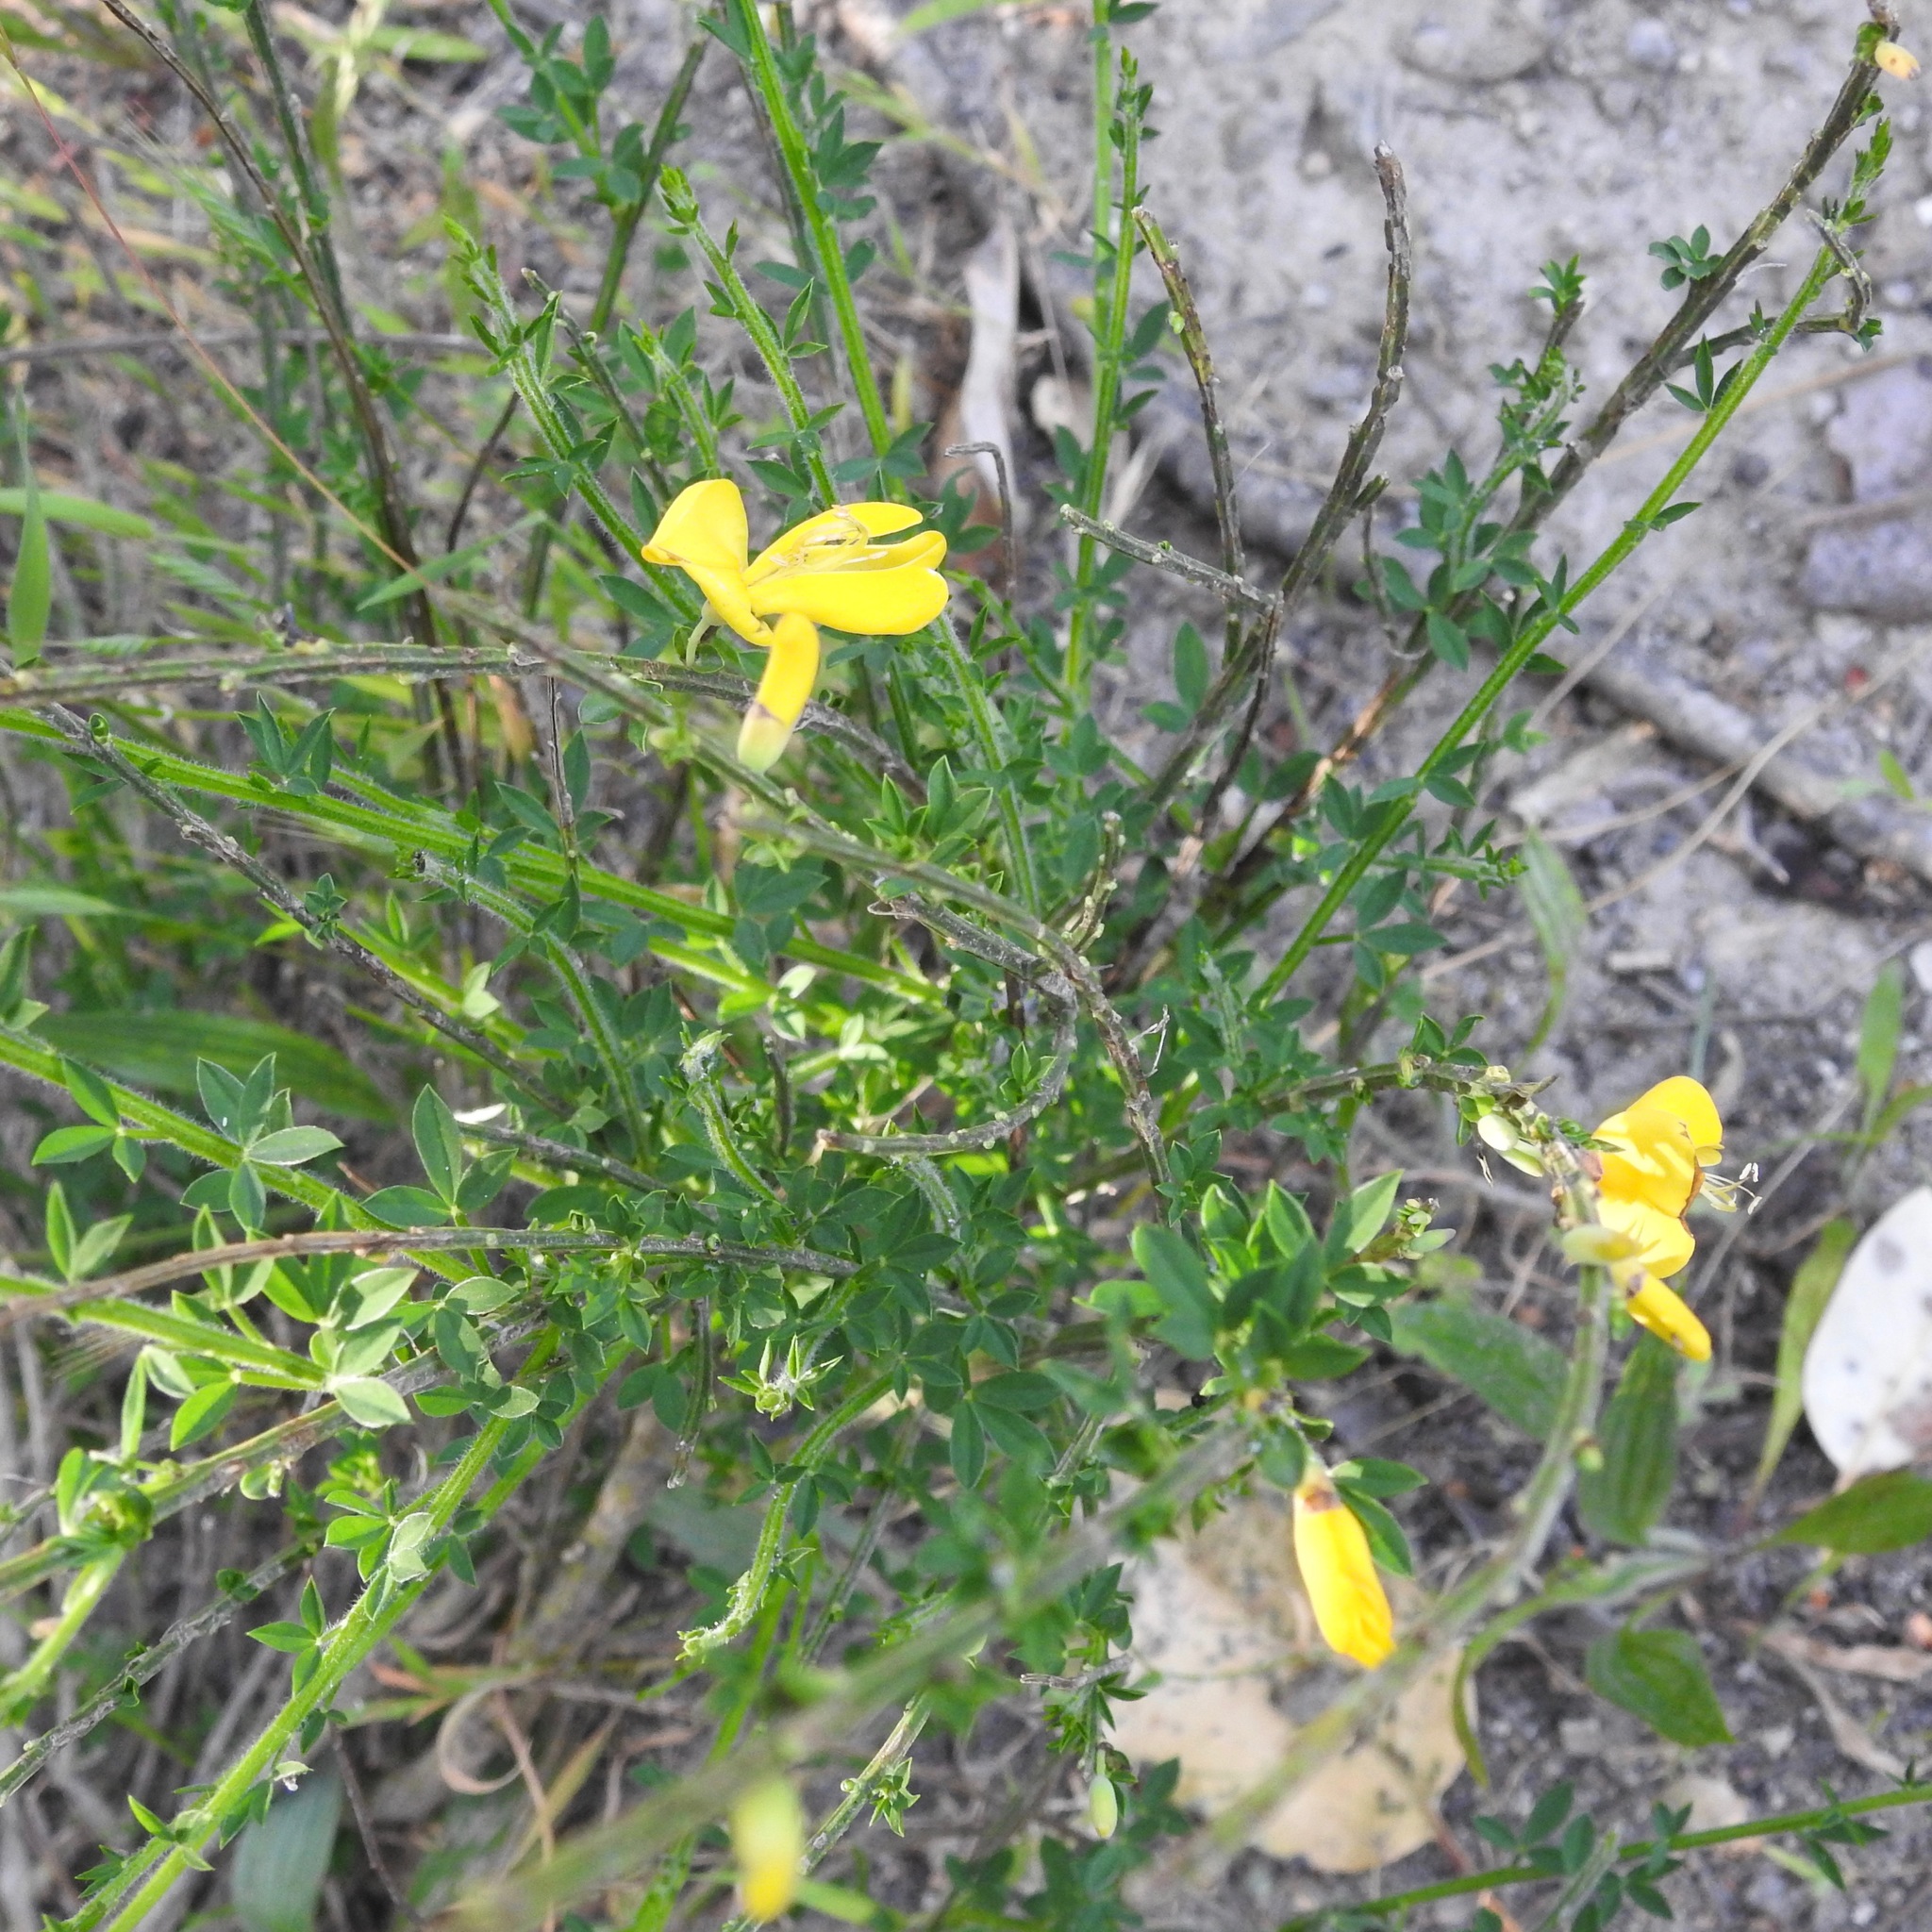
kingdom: Plantae
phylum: Tracheophyta
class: Magnoliopsida
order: Fabales
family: Fabaceae
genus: Cytisus
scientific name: Cytisus scoparius
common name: Scotch broom
